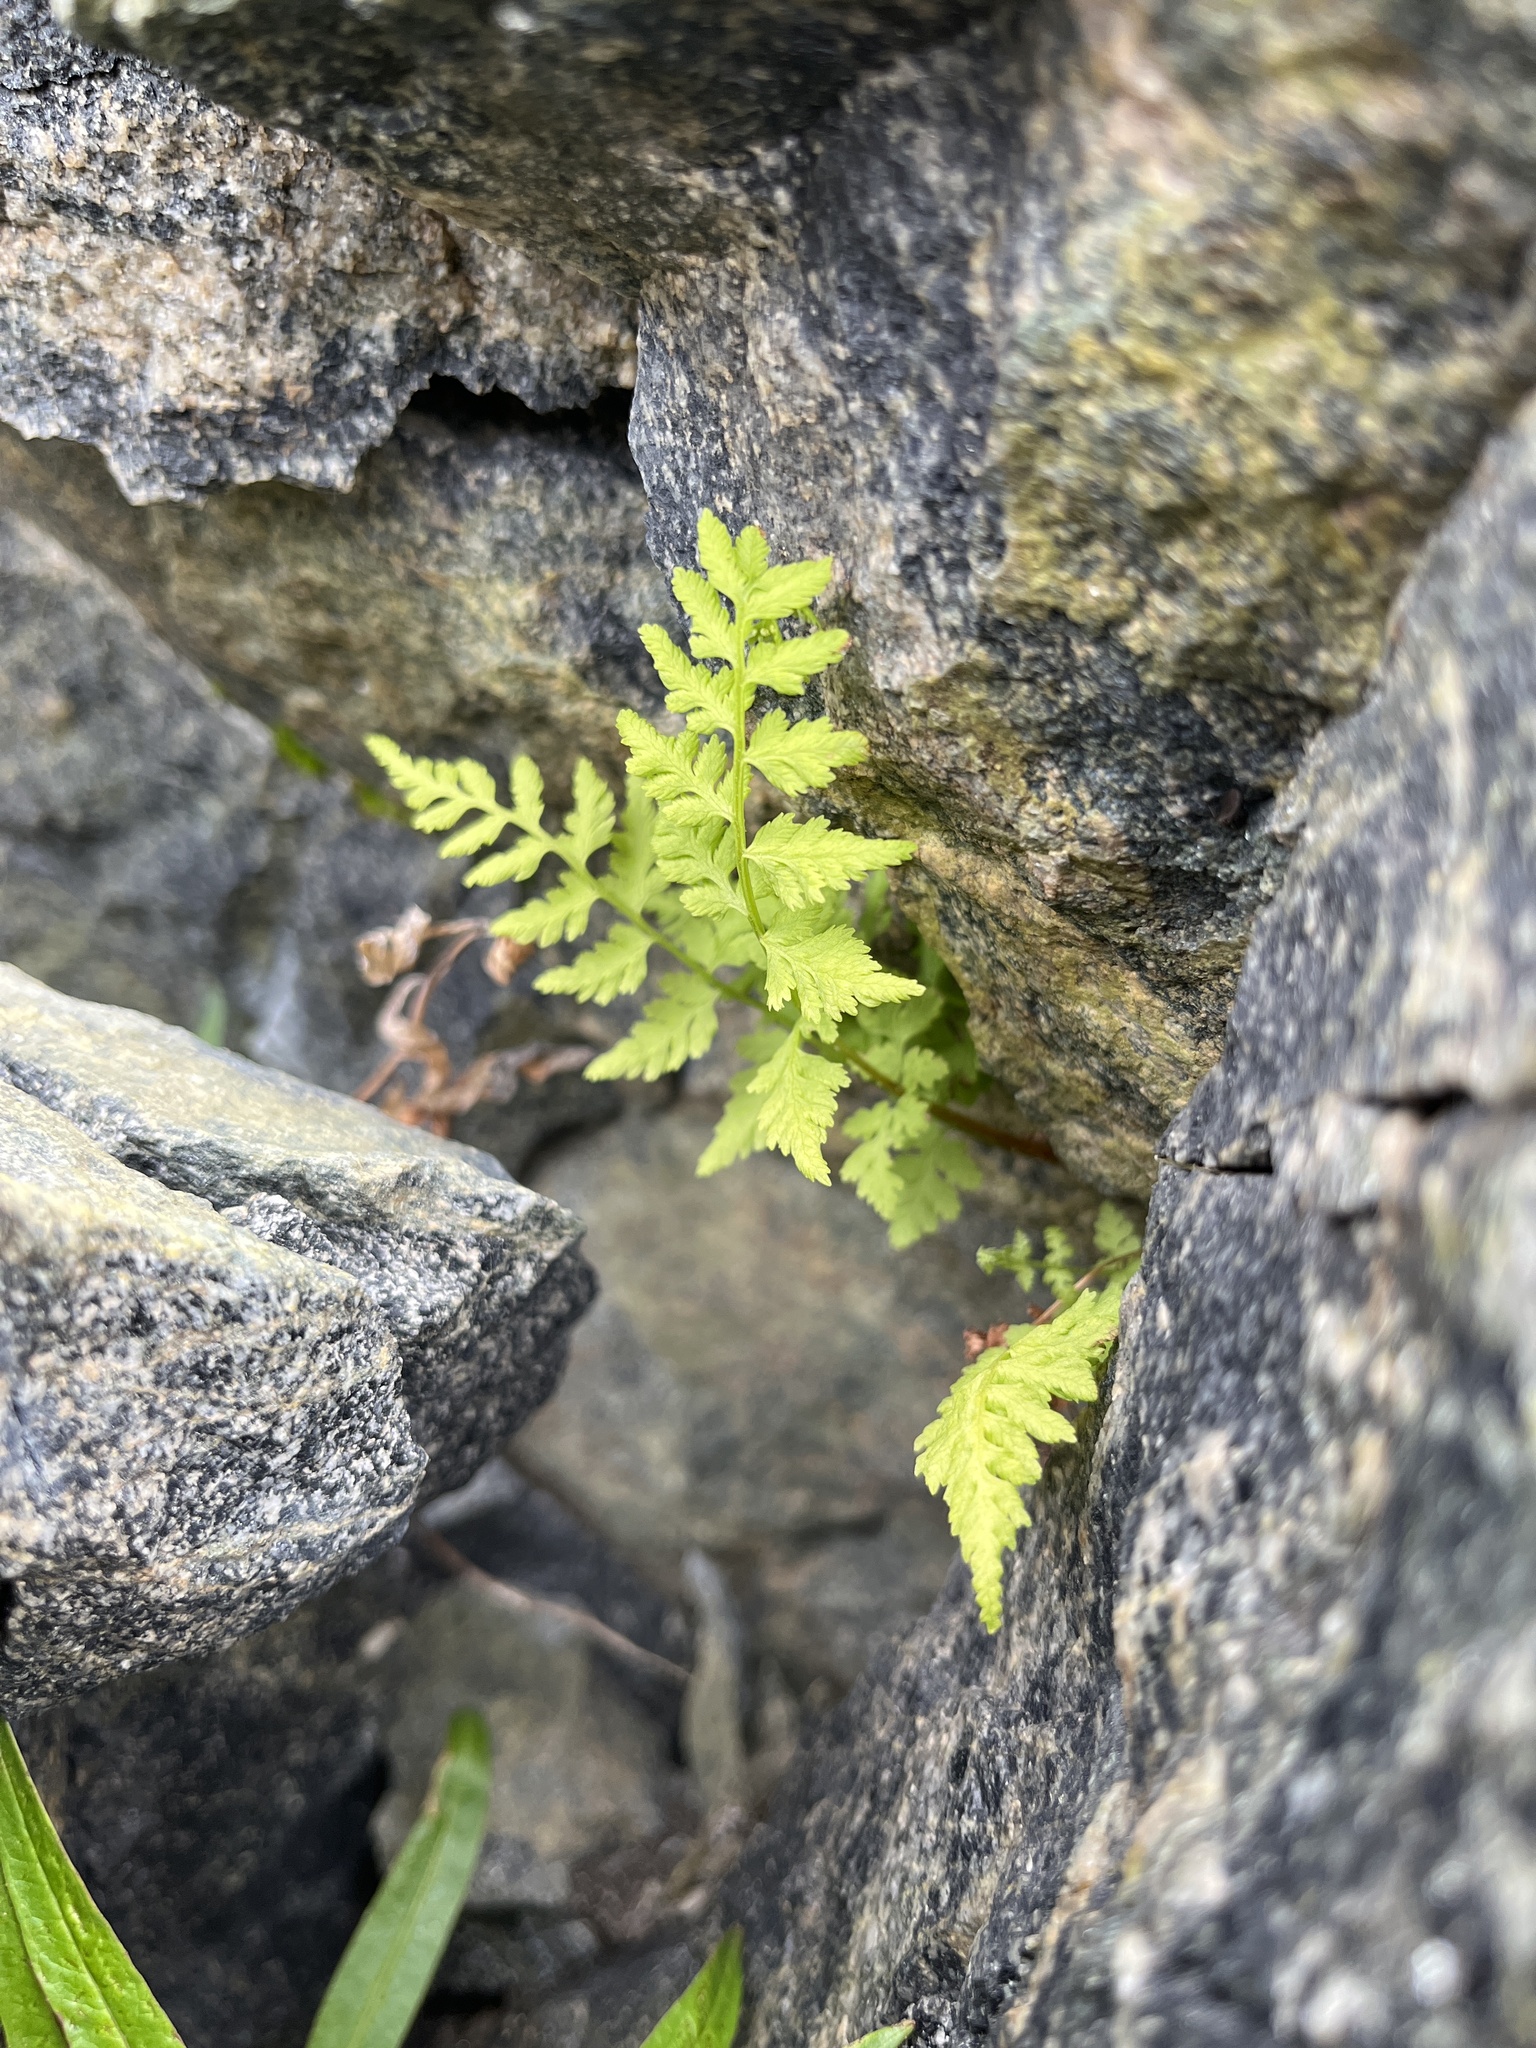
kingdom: Plantae
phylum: Tracheophyta
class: Polypodiopsida
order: Polypodiales
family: Cystopteridaceae
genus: Cystopteris
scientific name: Cystopteris fragilis
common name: Brittle bladder fern
